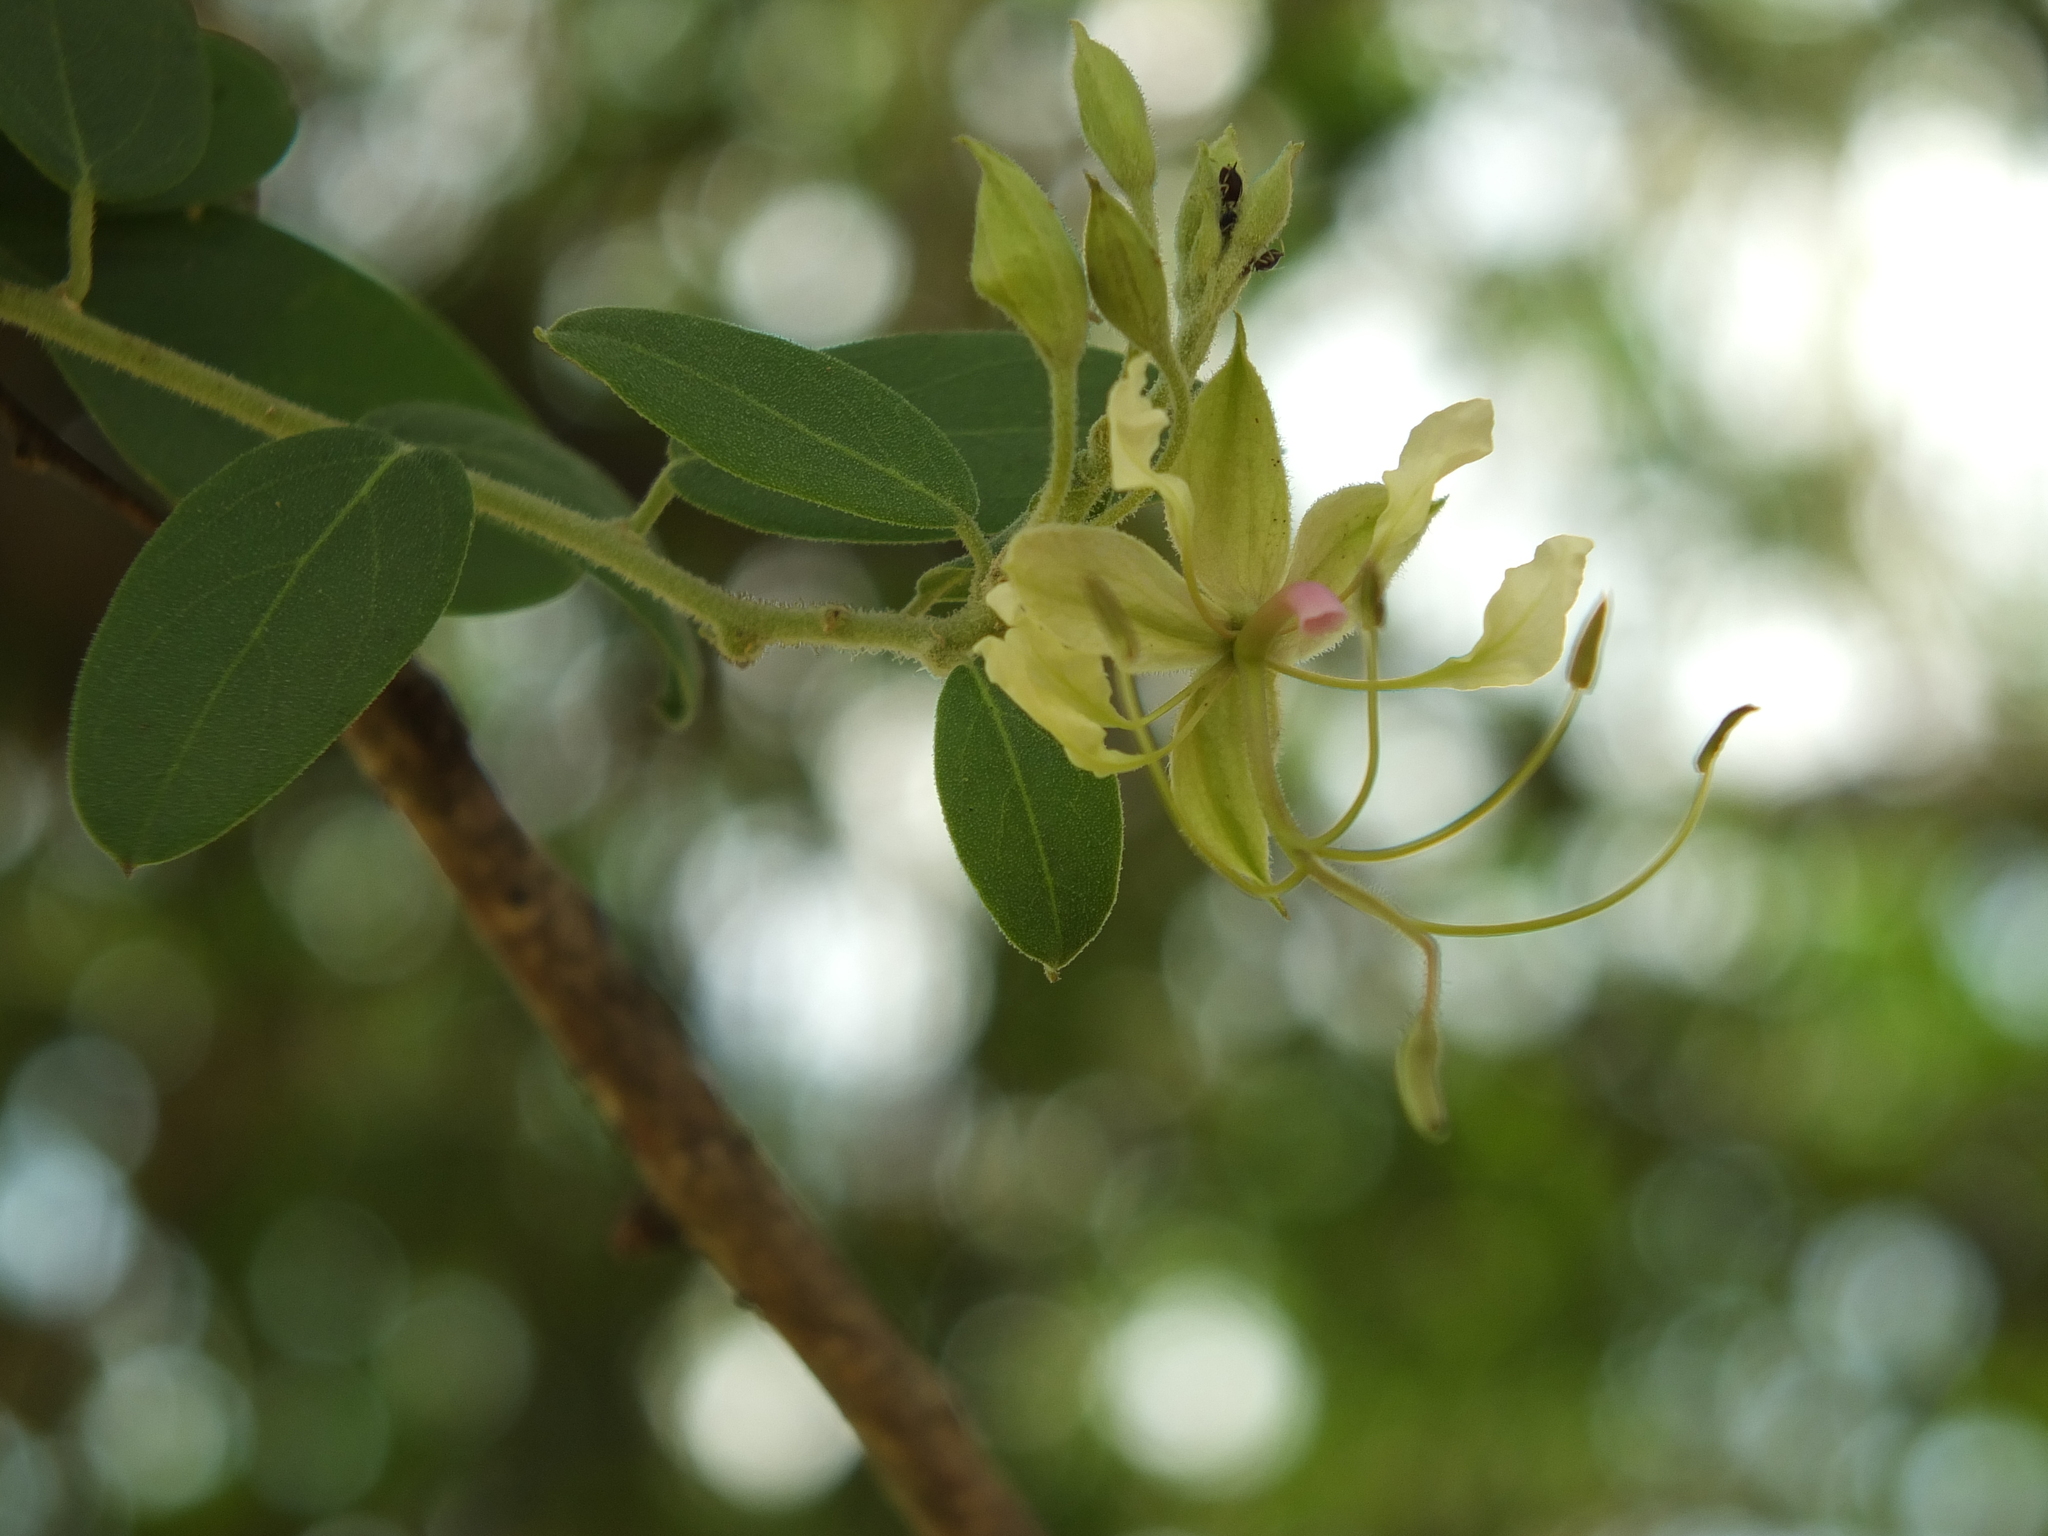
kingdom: Plantae
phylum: Tracheophyta
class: Magnoliopsida
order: Brassicales
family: Capparaceae
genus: Cadaba
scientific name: Cadaba fruticosa
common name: Indian cadaba
